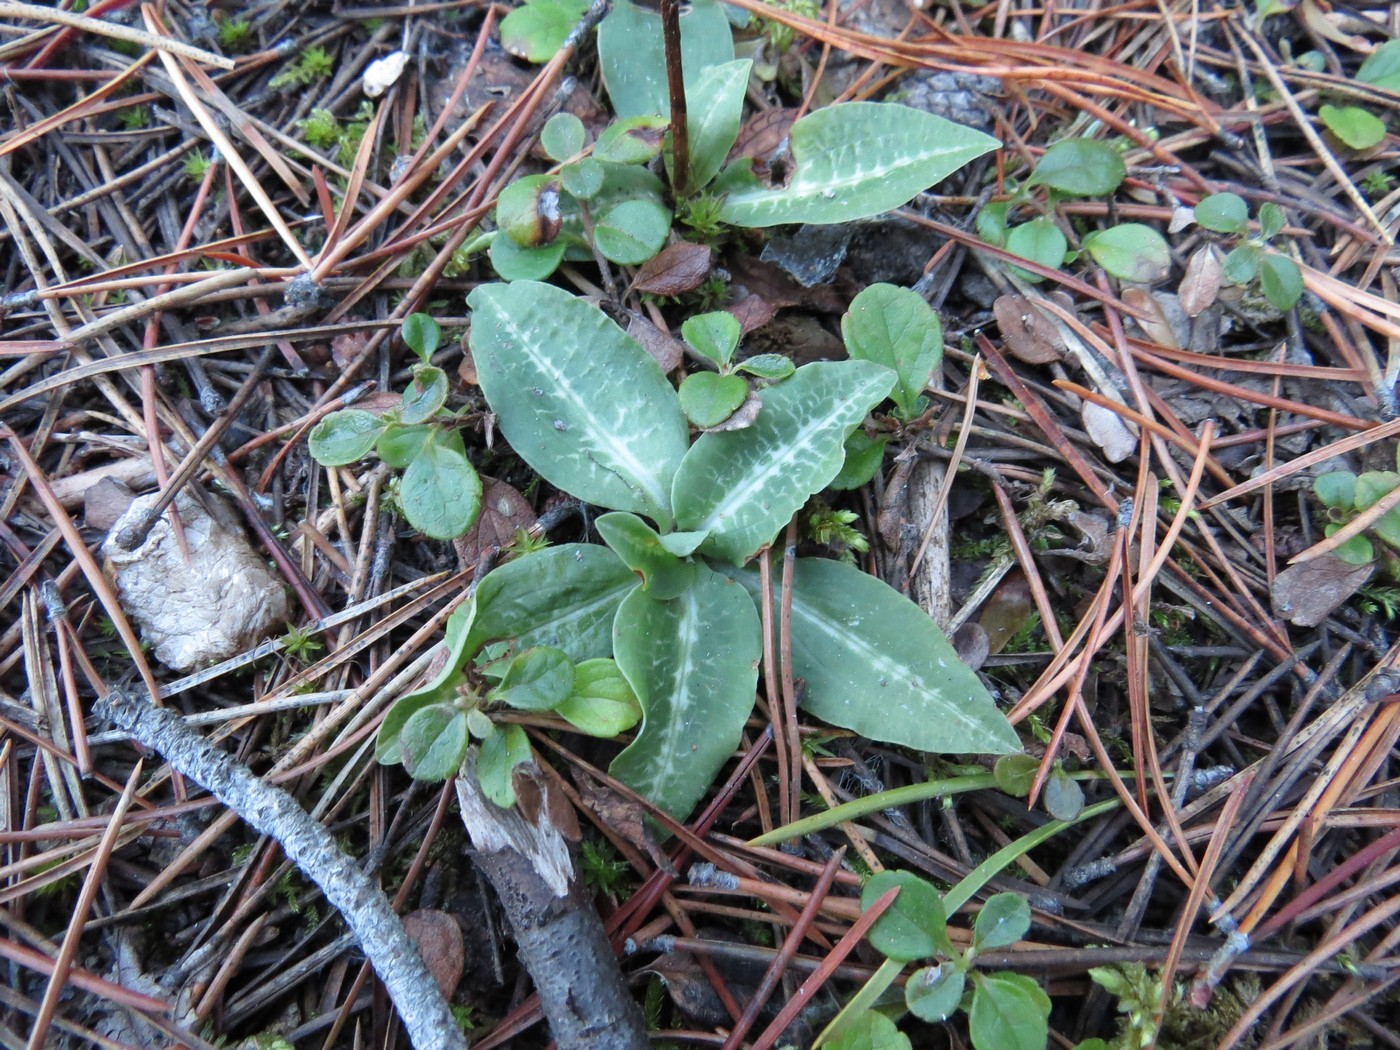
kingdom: Plantae
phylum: Tracheophyta
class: Liliopsida
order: Asparagales
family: Orchidaceae
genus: Goodyera
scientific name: Goodyera oblongifolia
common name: Giant rattlesnake-plantain
